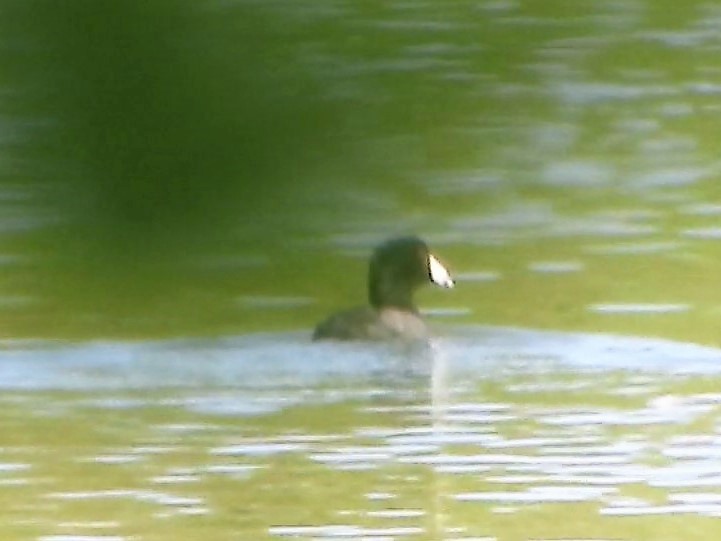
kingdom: Animalia
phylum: Chordata
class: Aves
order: Gruiformes
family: Rallidae
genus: Fulica
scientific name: Fulica americana
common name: American coot
